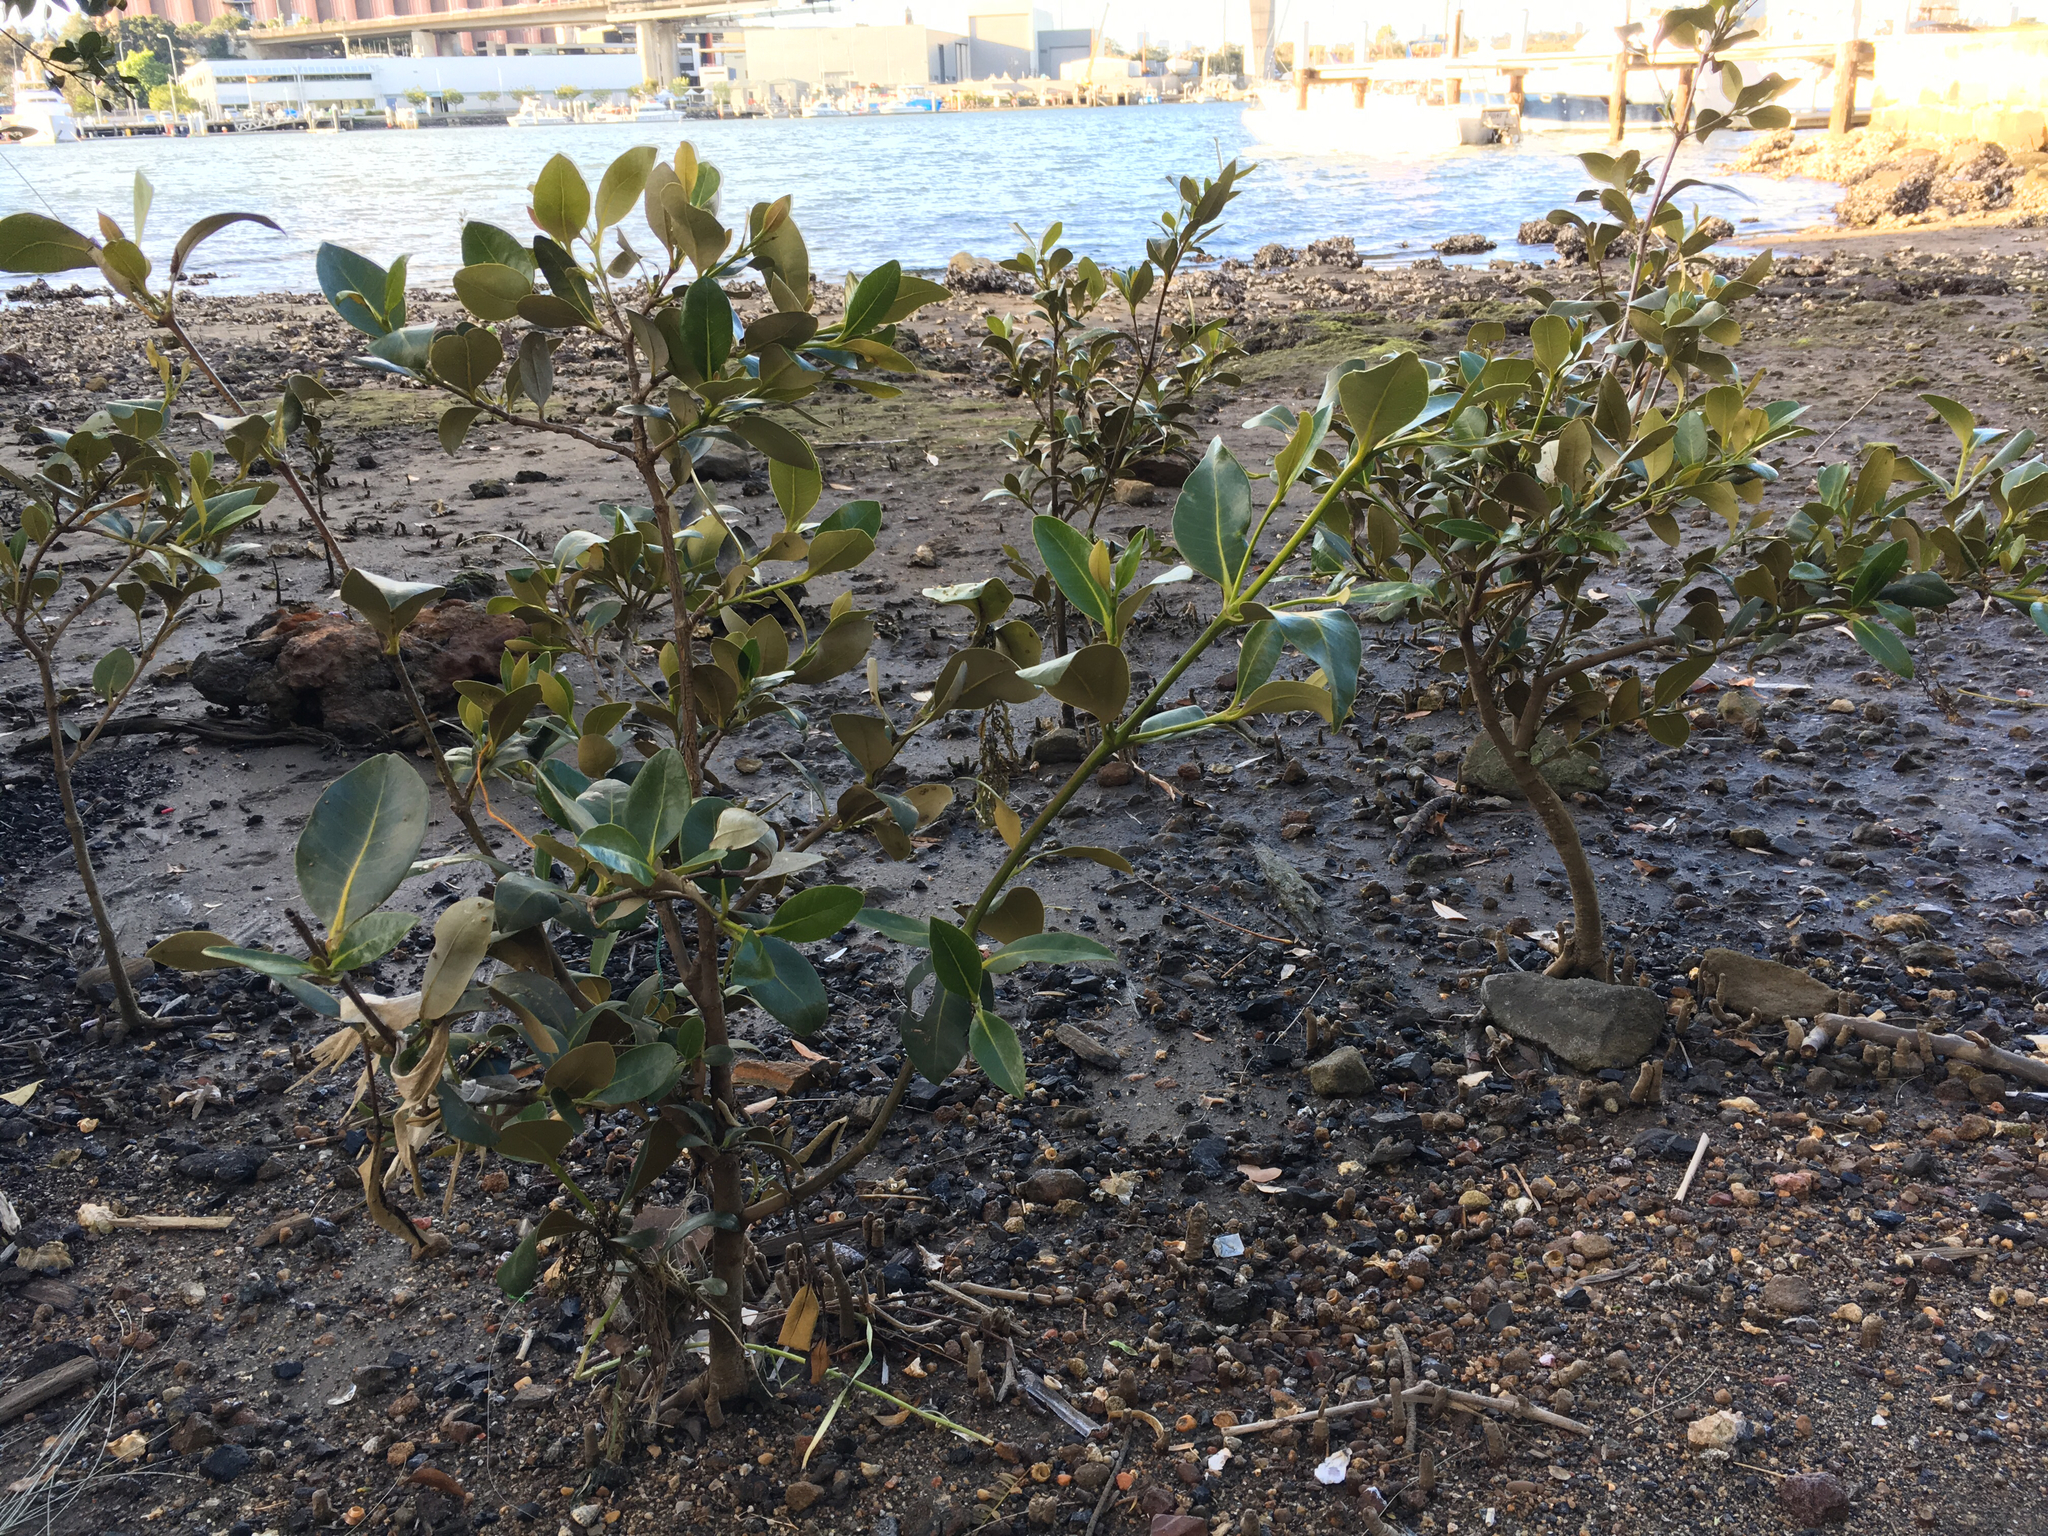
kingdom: Plantae
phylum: Tracheophyta
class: Magnoliopsida
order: Lamiales
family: Acanthaceae
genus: Avicennia
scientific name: Avicennia marina
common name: Gray mangrove
